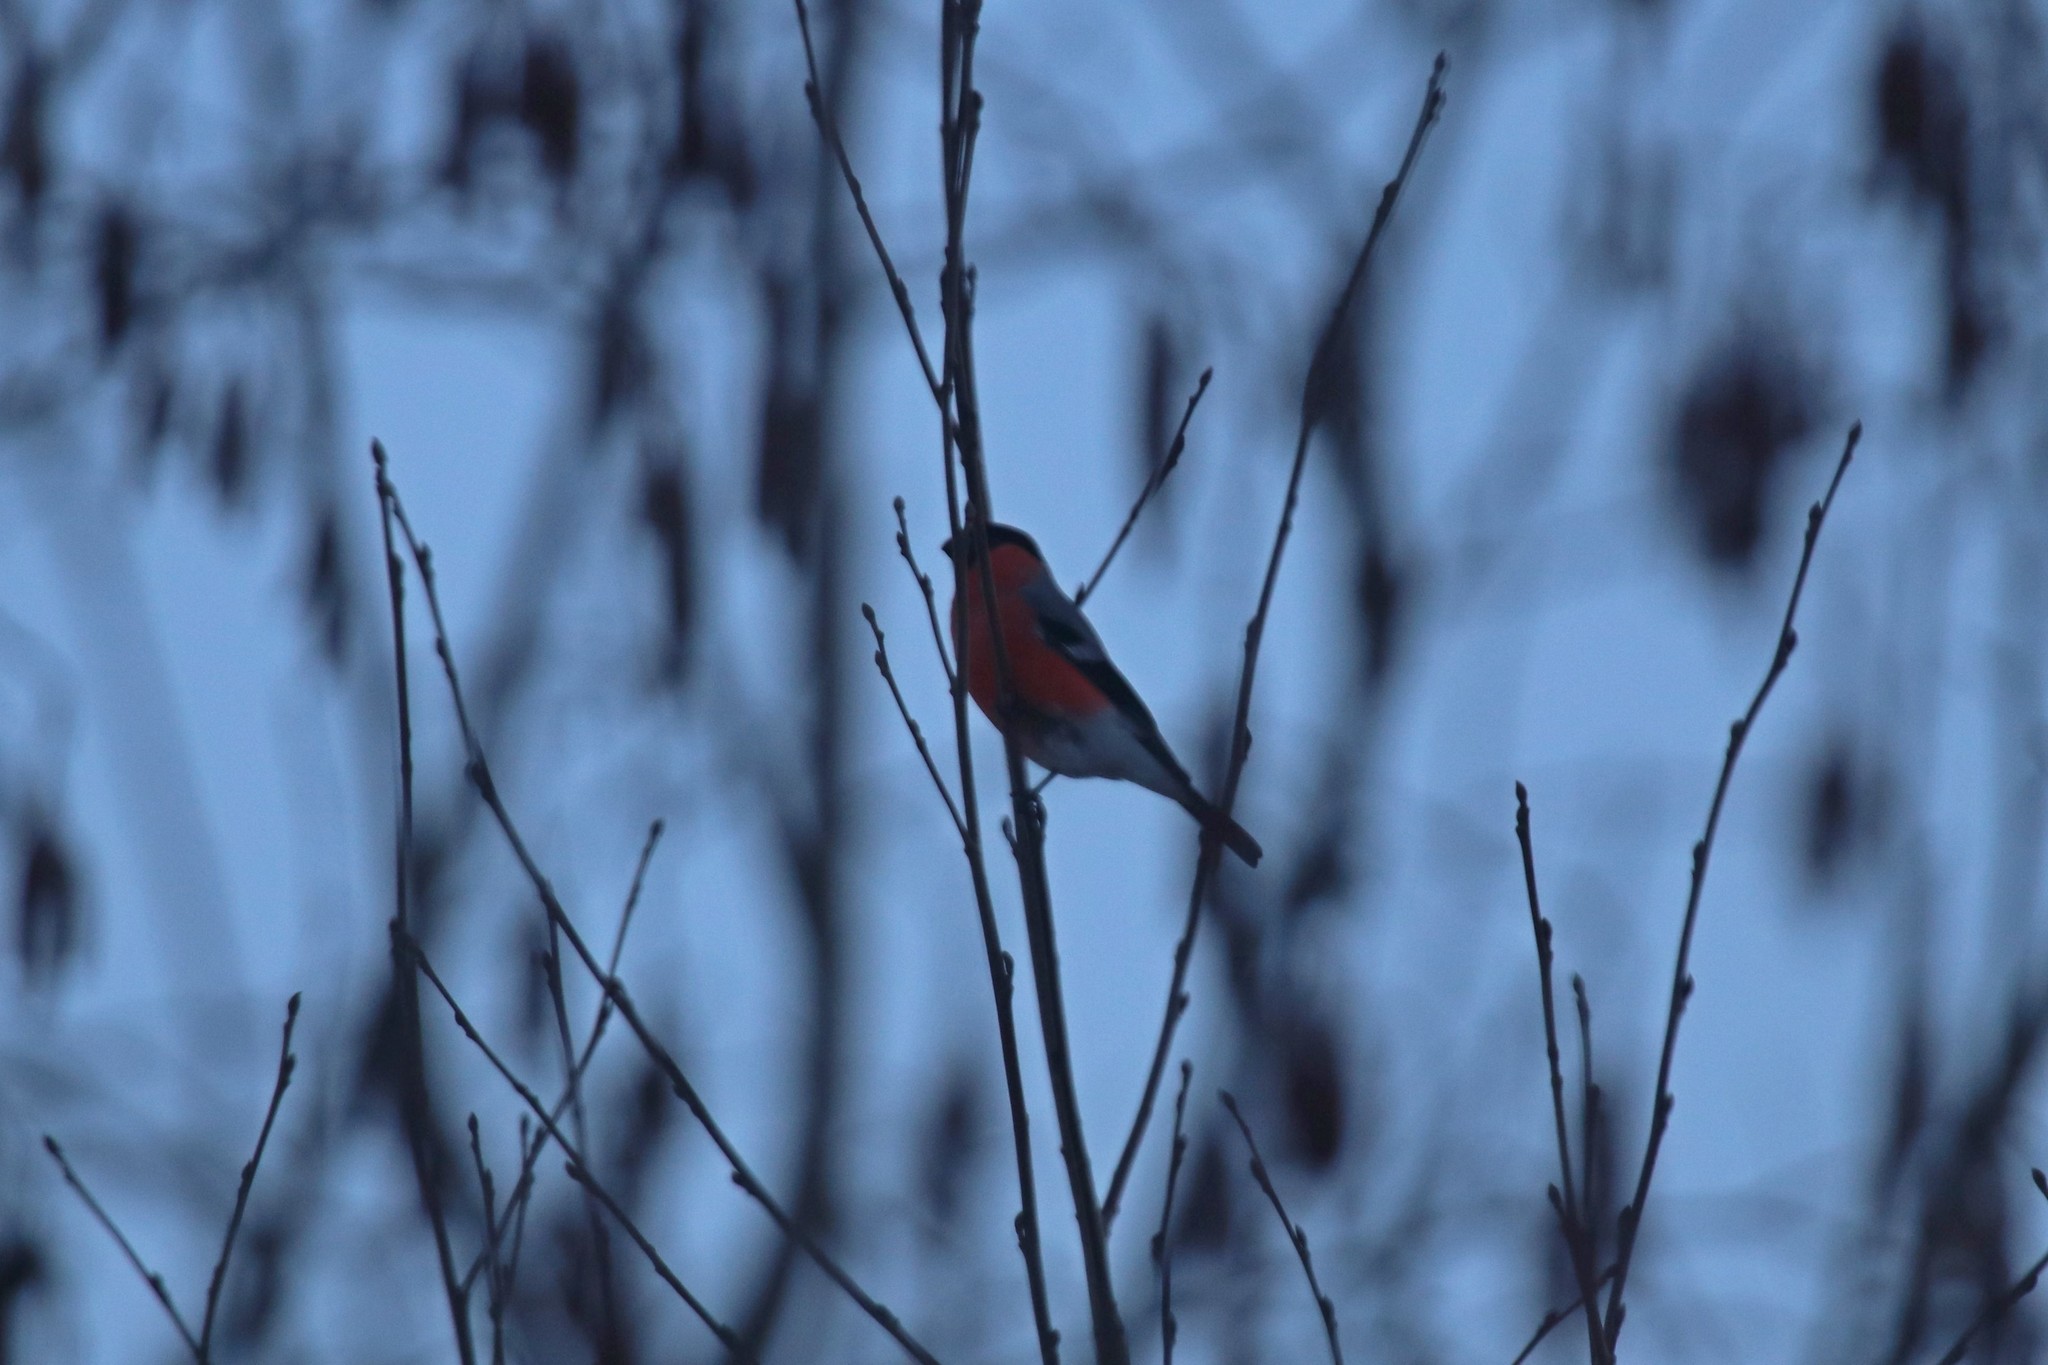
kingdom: Animalia
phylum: Chordata
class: Aves
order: Passeriformes
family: Fringillidae
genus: Pyrrhula
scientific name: Pyrrhula pyrrhula
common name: Eurasian bullfinch
